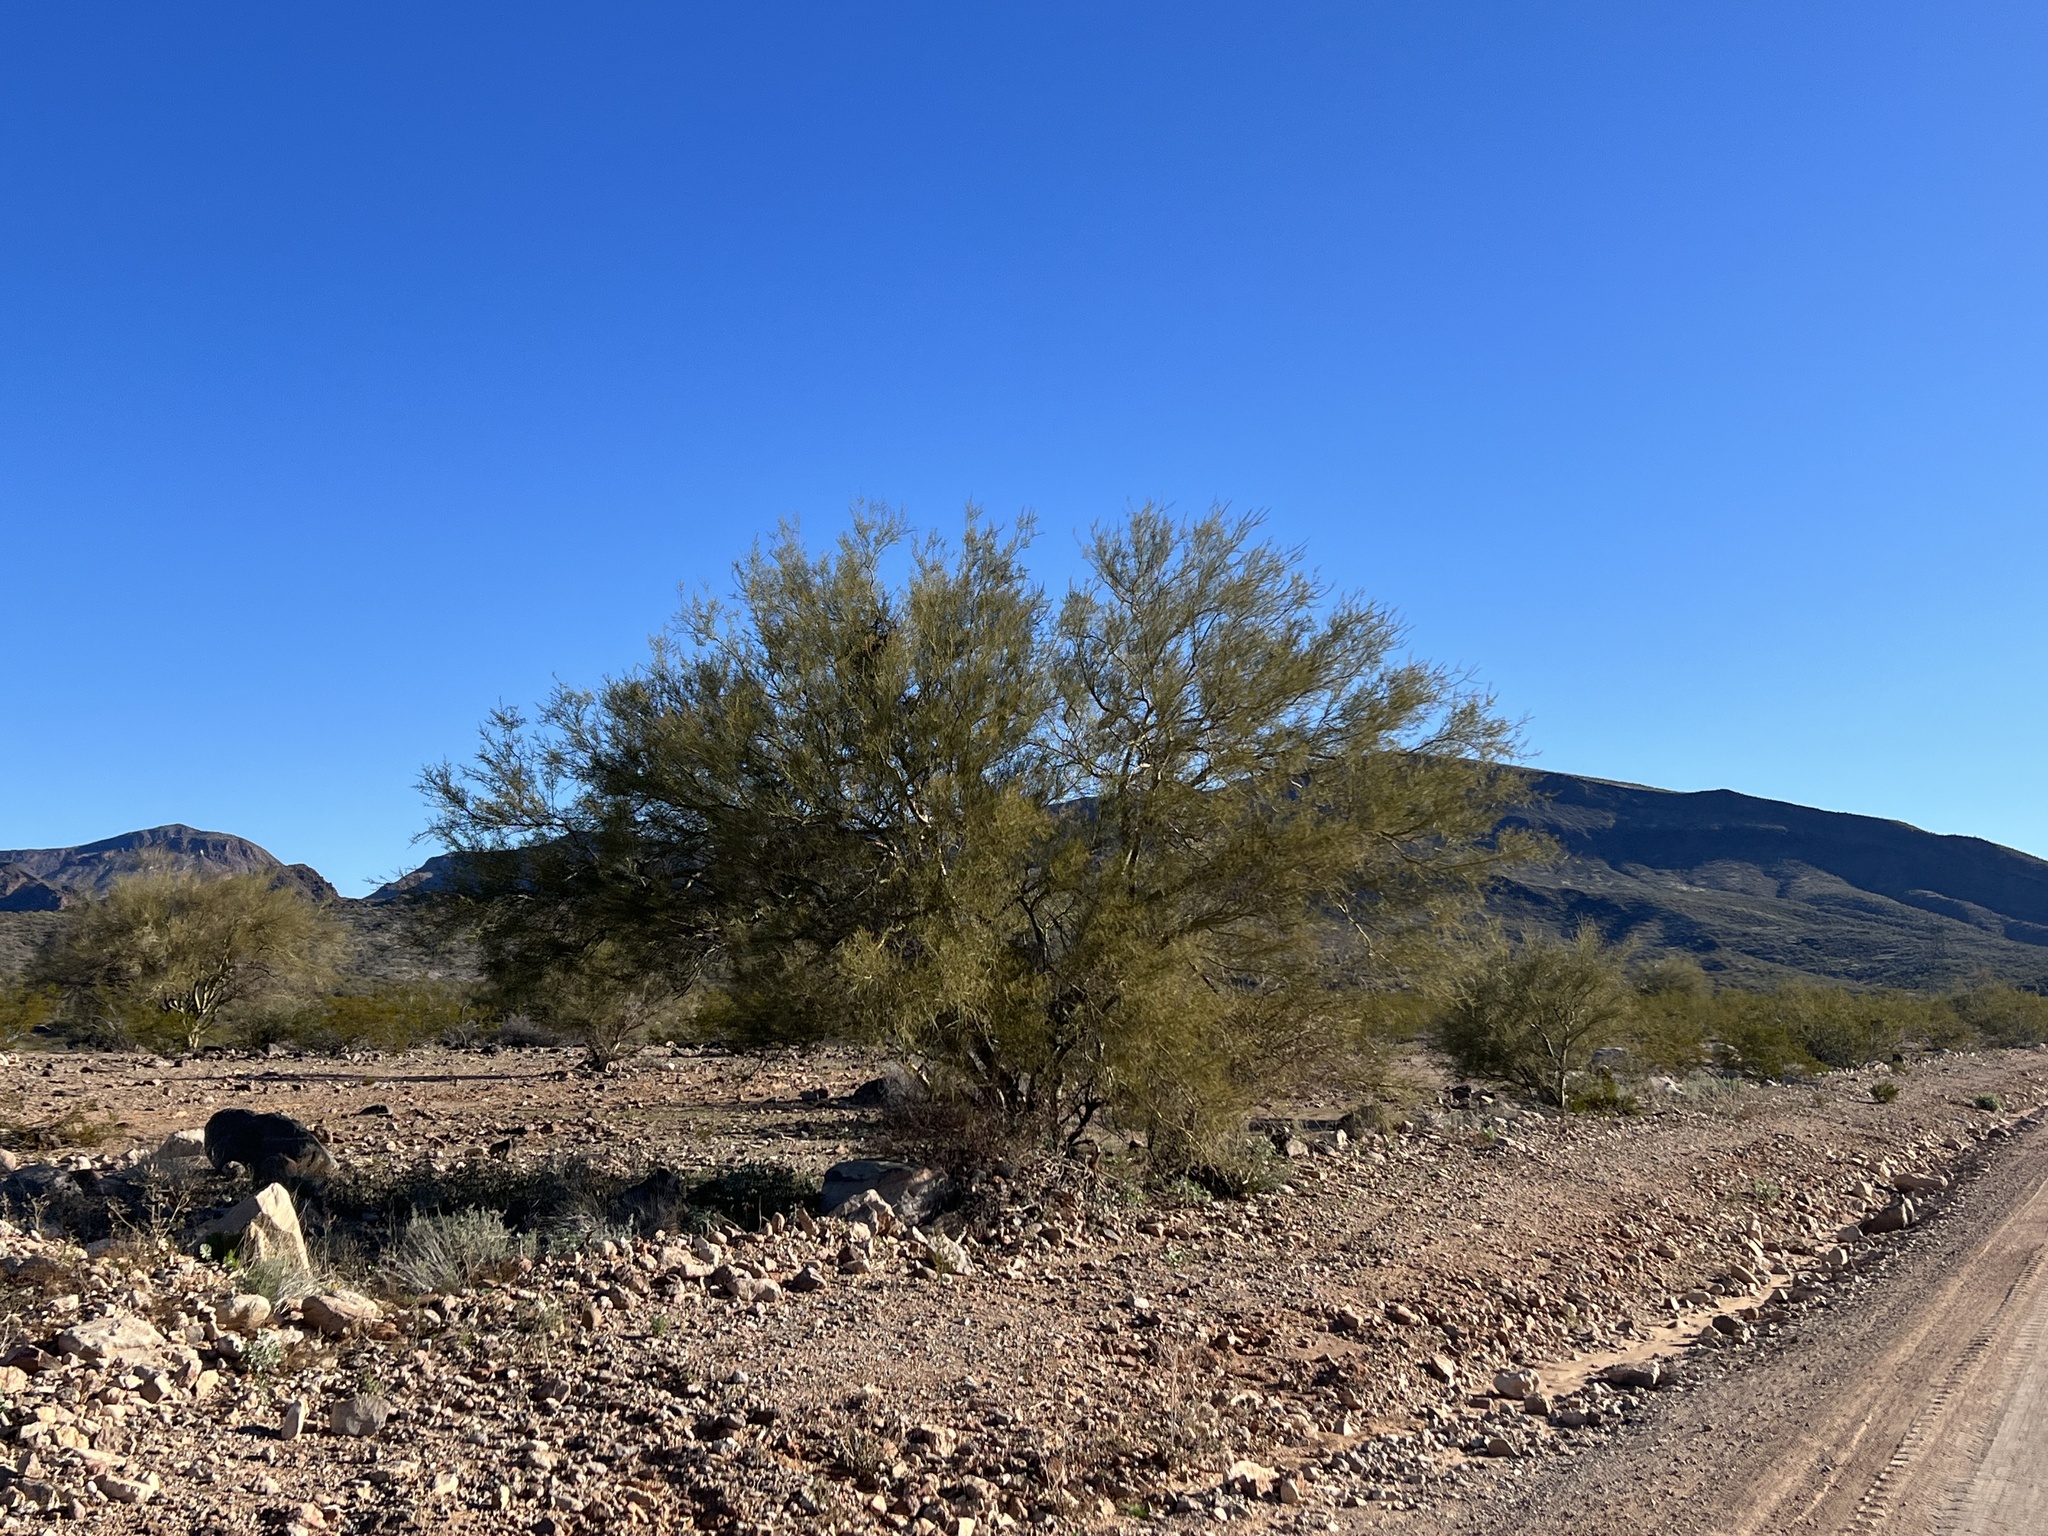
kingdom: Plantae
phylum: Tracheophyta
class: Magnoliopsida
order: Fabales
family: Fabaceae
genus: Parkinsonia
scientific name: Parkinsonia microphylla
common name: Yellow paloverde
